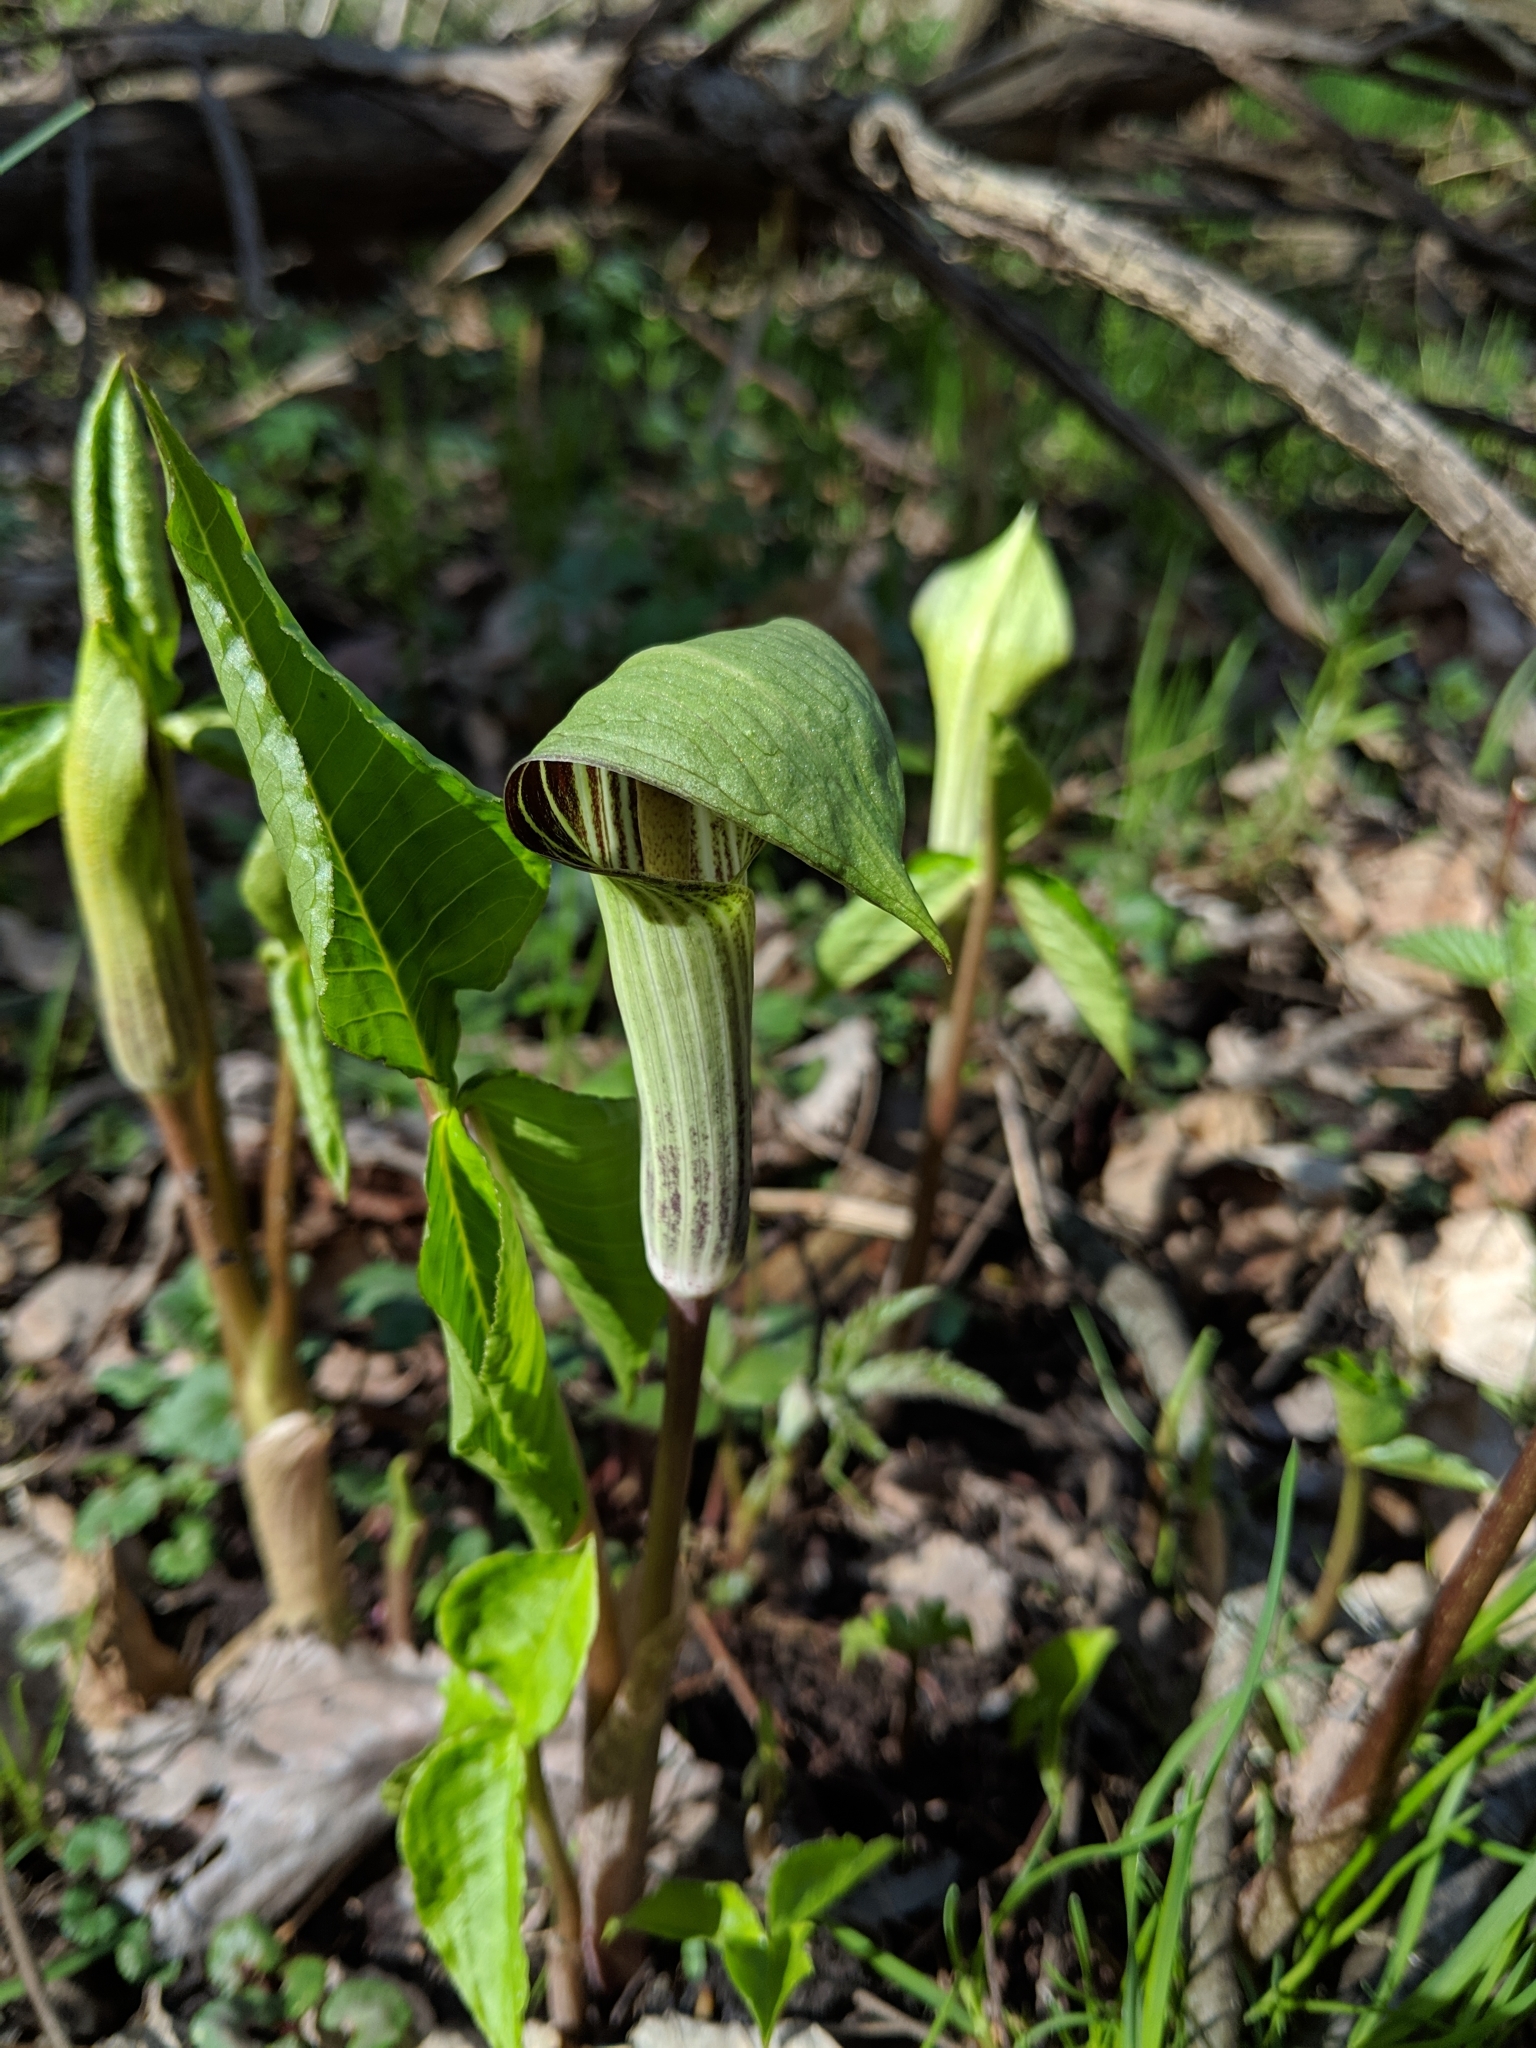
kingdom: Plantae
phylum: Tracheophyta
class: Liliopsida
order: Alismatales
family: Araceae
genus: Arisaema
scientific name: Arisaema triphyllum
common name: Jack-in-the-pulpit
